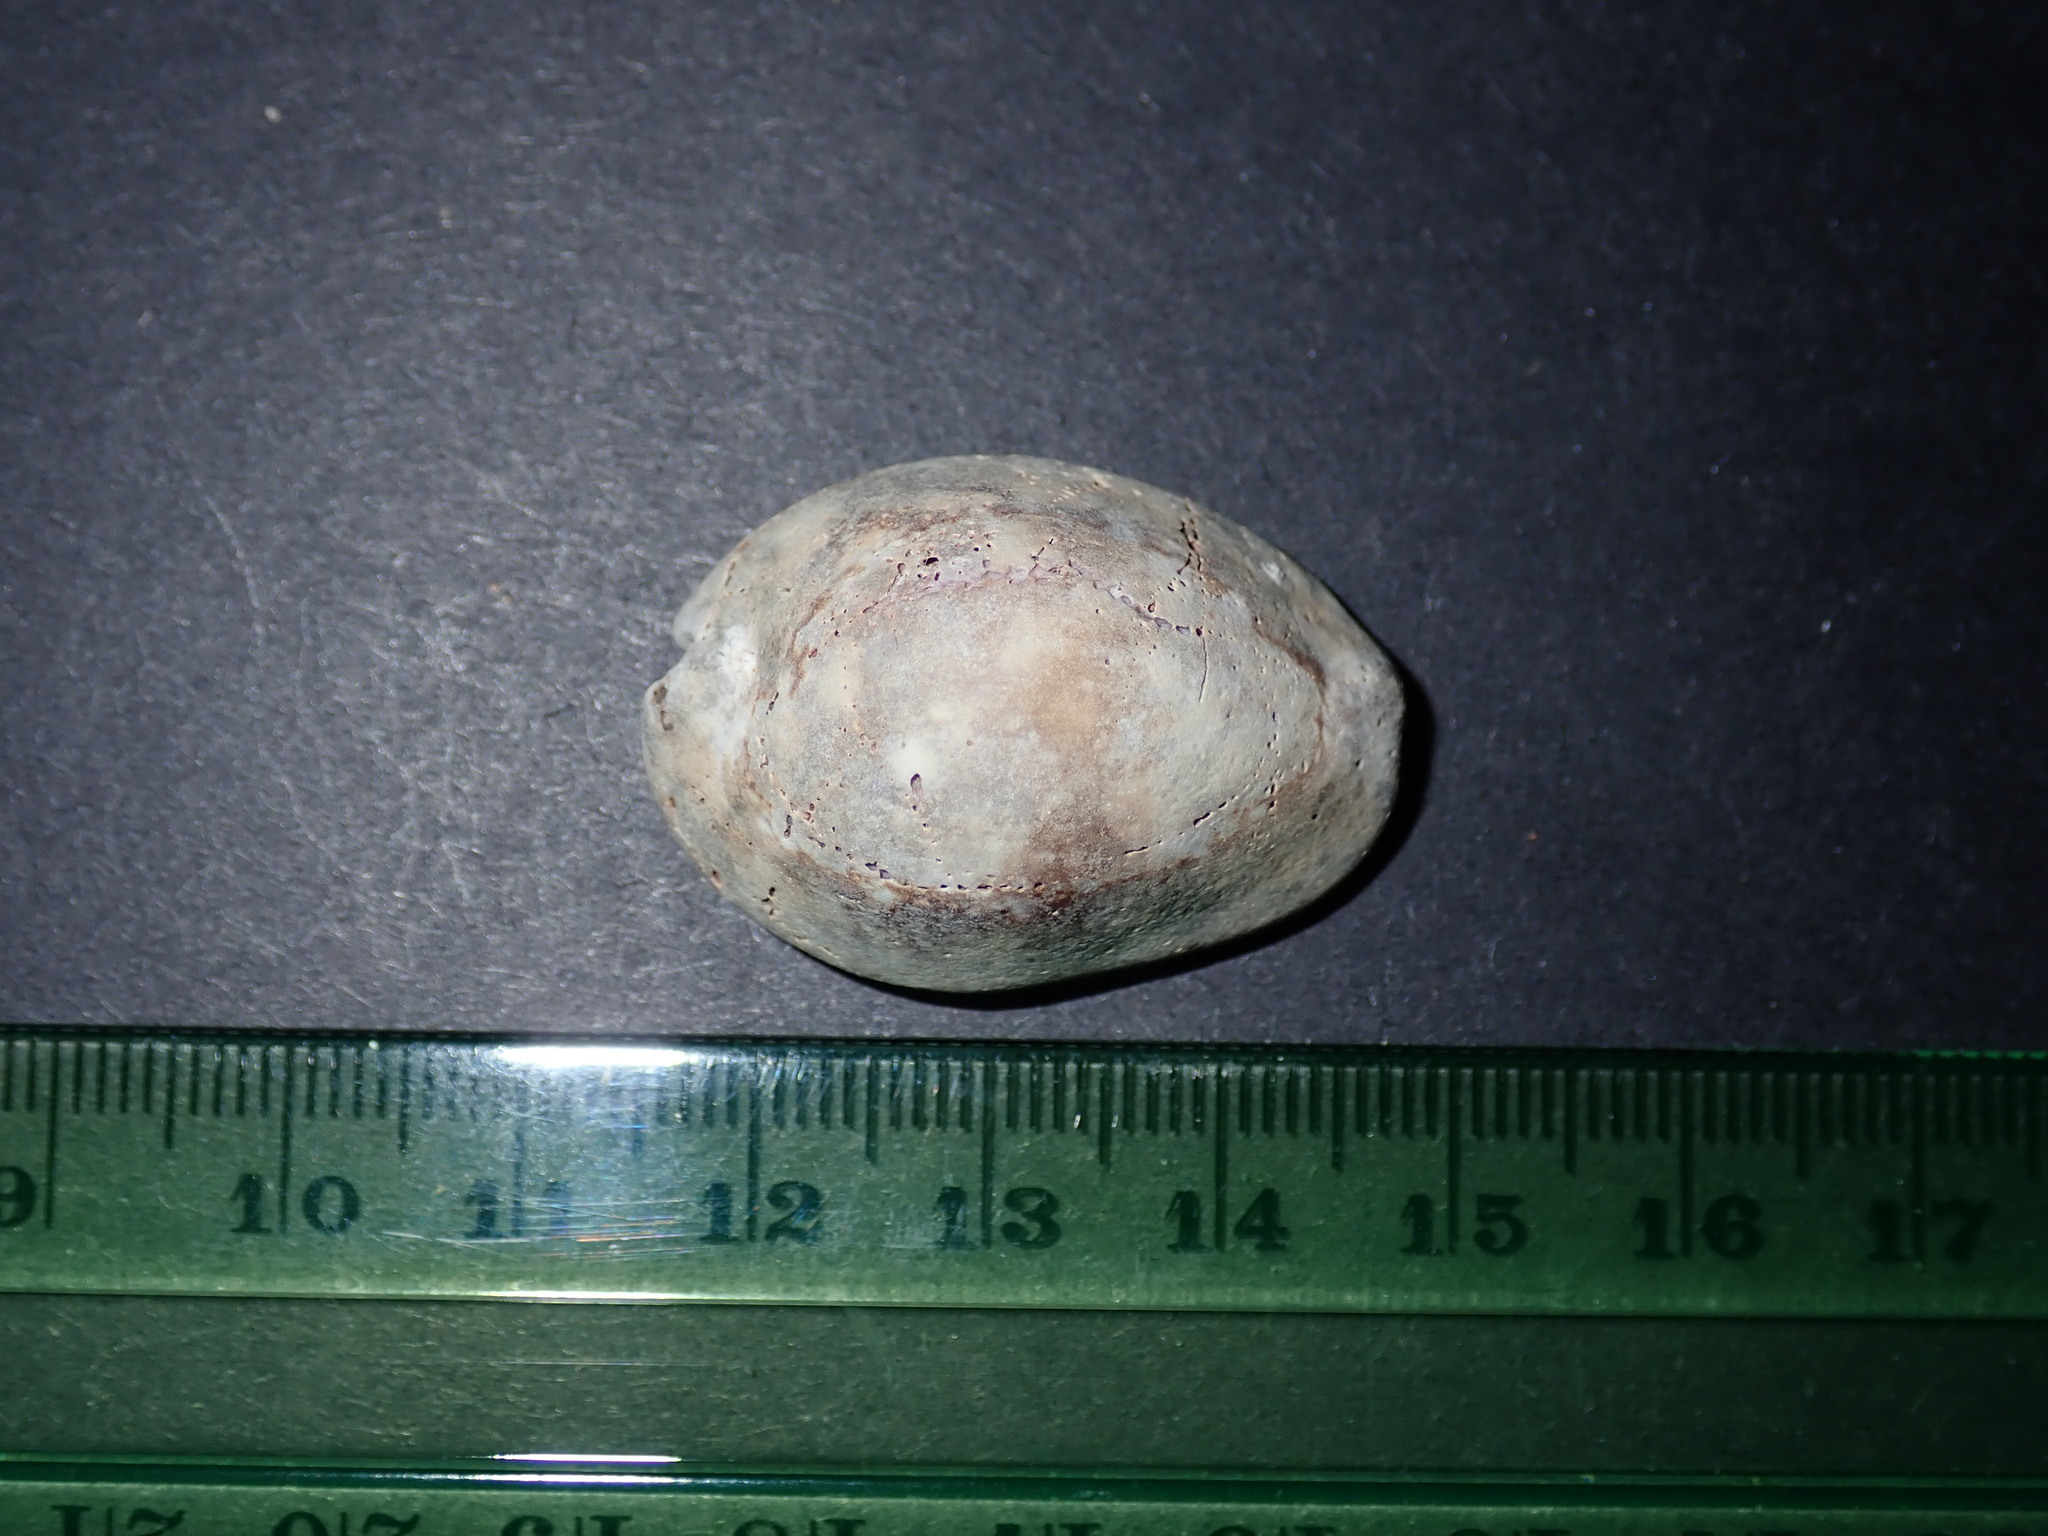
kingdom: Animalia
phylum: Mollusca
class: Gastropoda
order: Littorinimorpha
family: Cypraeidae
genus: Monetaria
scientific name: Monetaria caputserpentis
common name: Serpent's head cowrie
